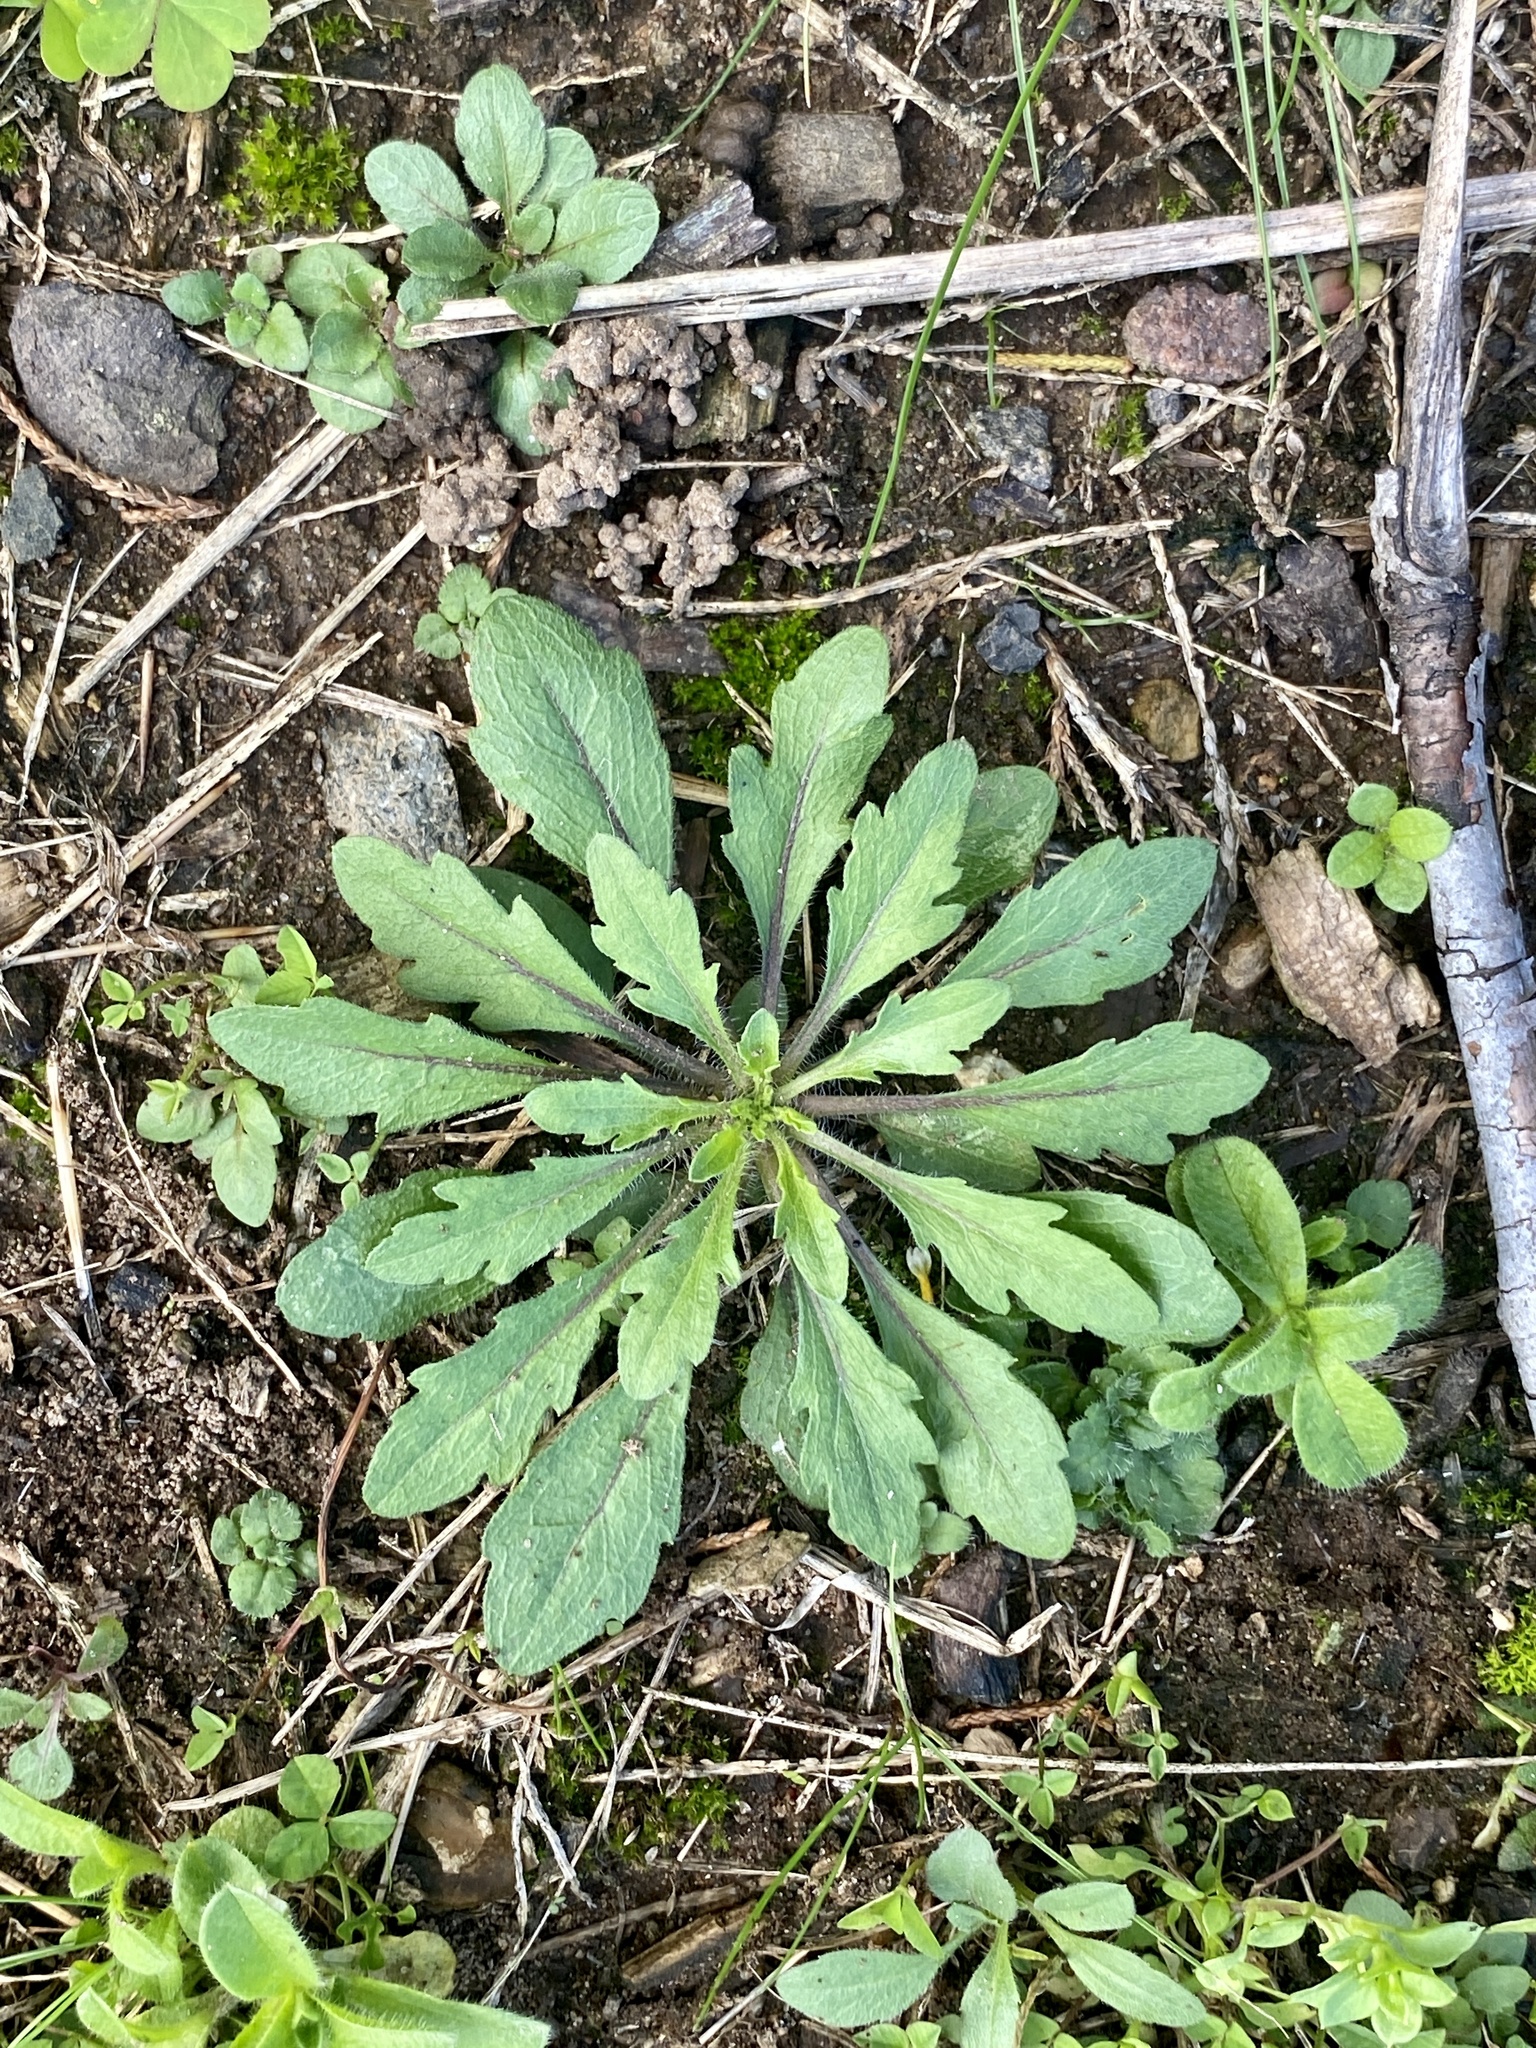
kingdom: Plantae
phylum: Tracheophyta
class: Magnoliopsida
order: Asterales
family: Asteraceae
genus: Erigeron
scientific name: Erigeron canadensis
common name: Canadian fleabane
